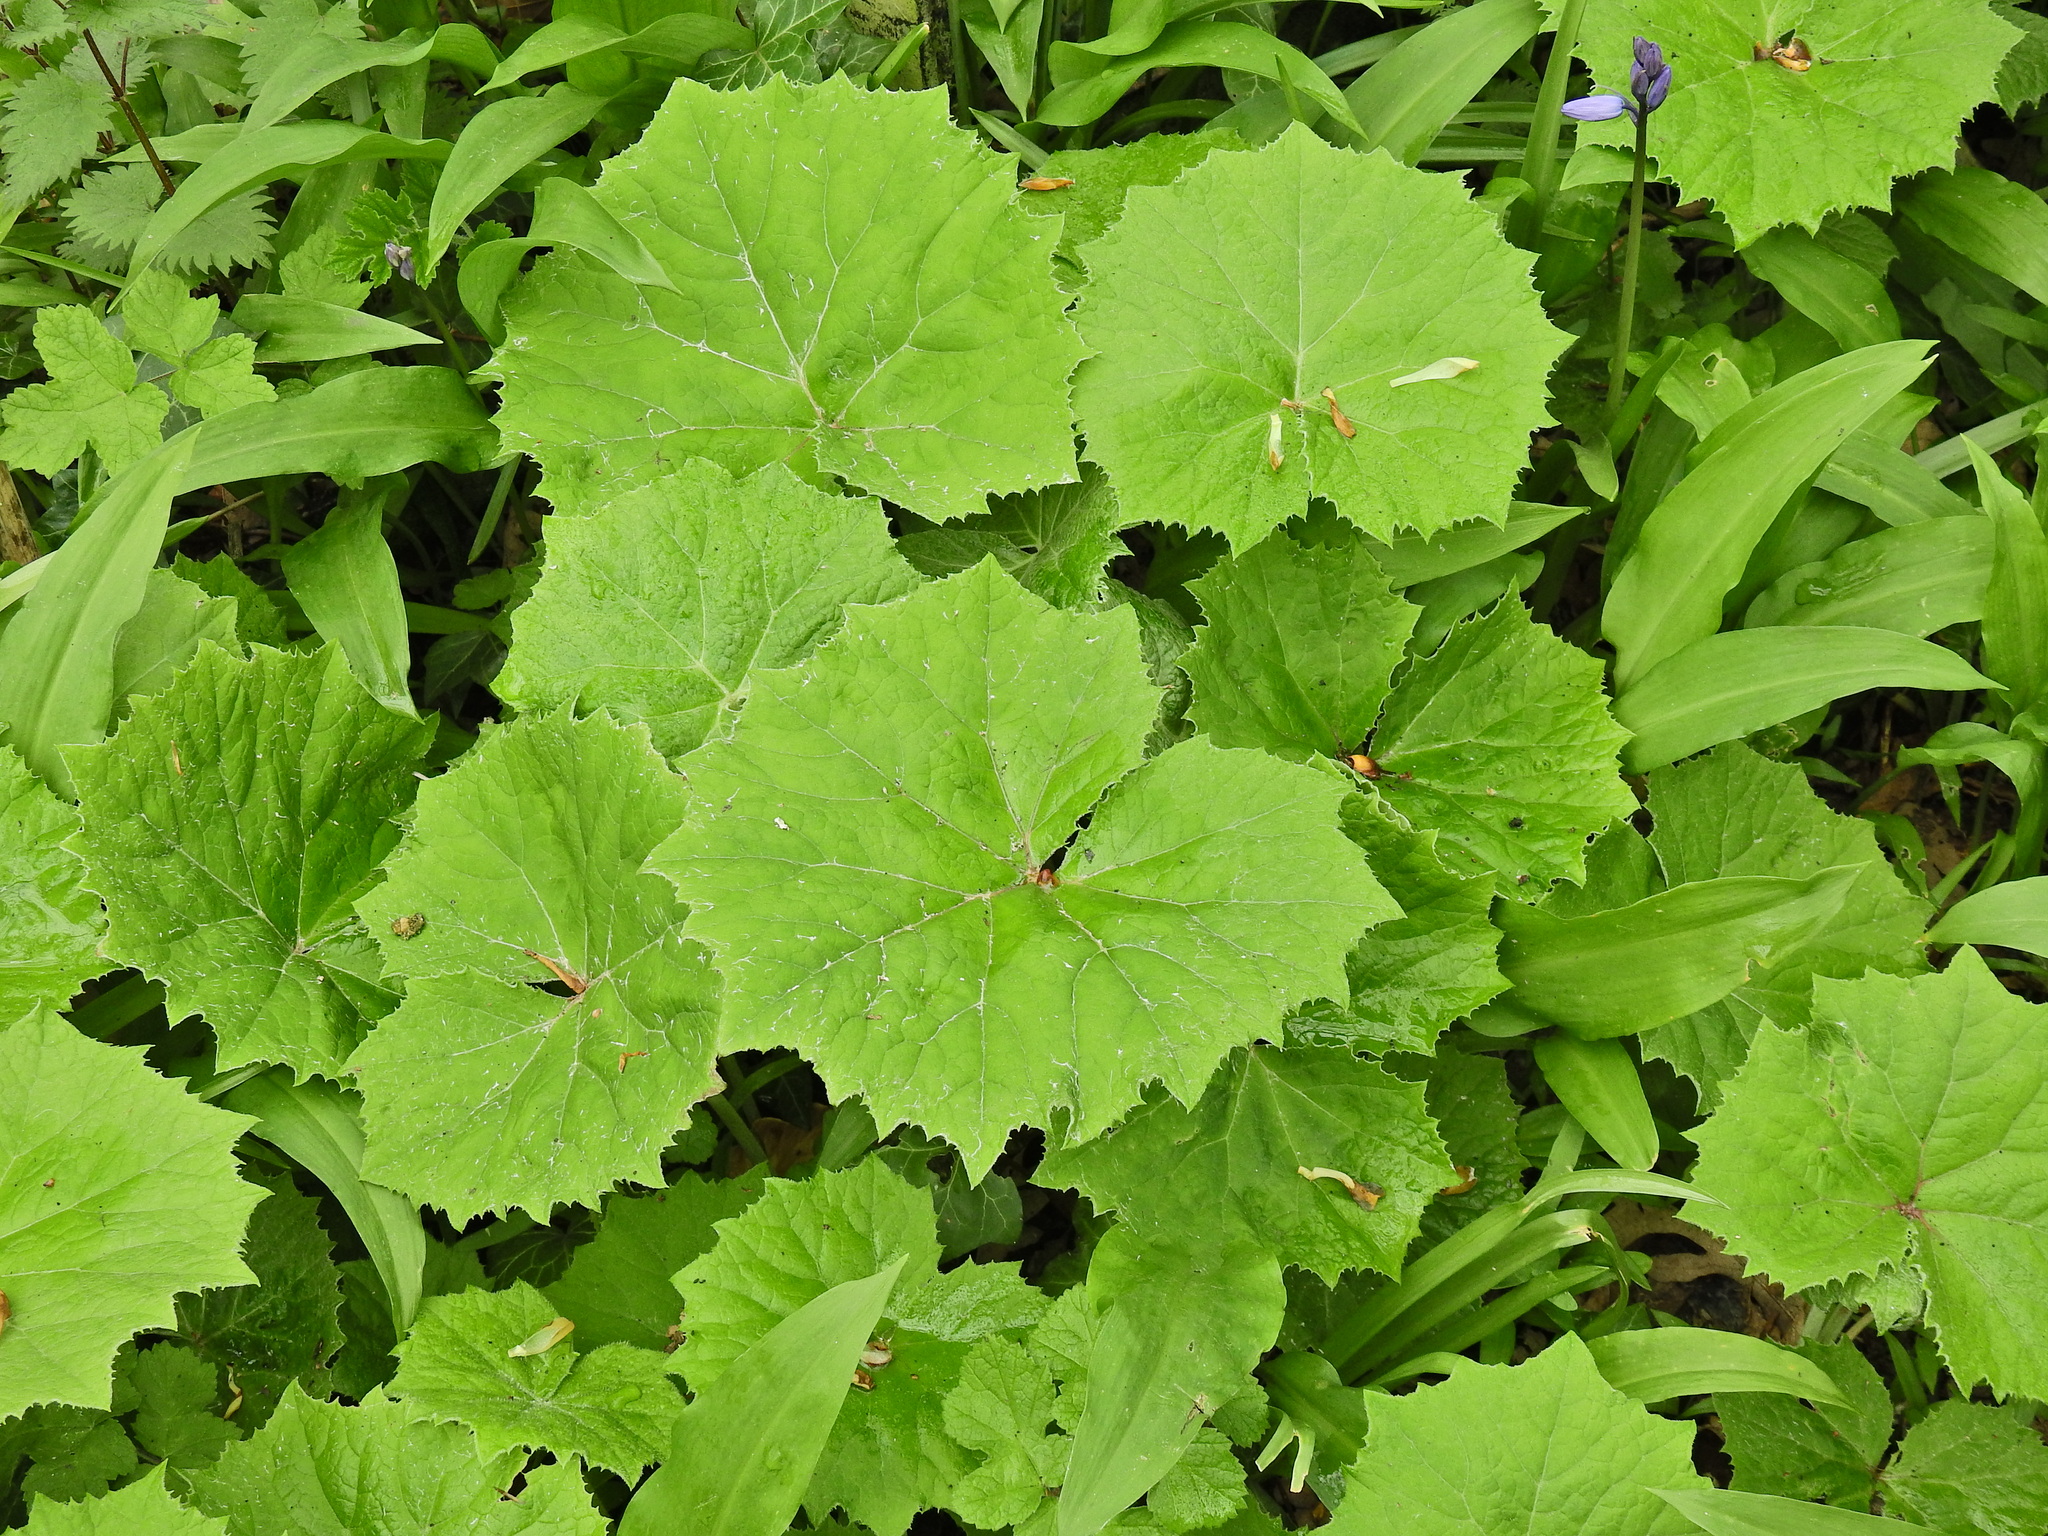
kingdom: Plantae
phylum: Tracheophyta
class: Magnoliopsida
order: Asterales
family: Asteraceae
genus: Petasites
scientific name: Petasites hybridus
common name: Butterbur
